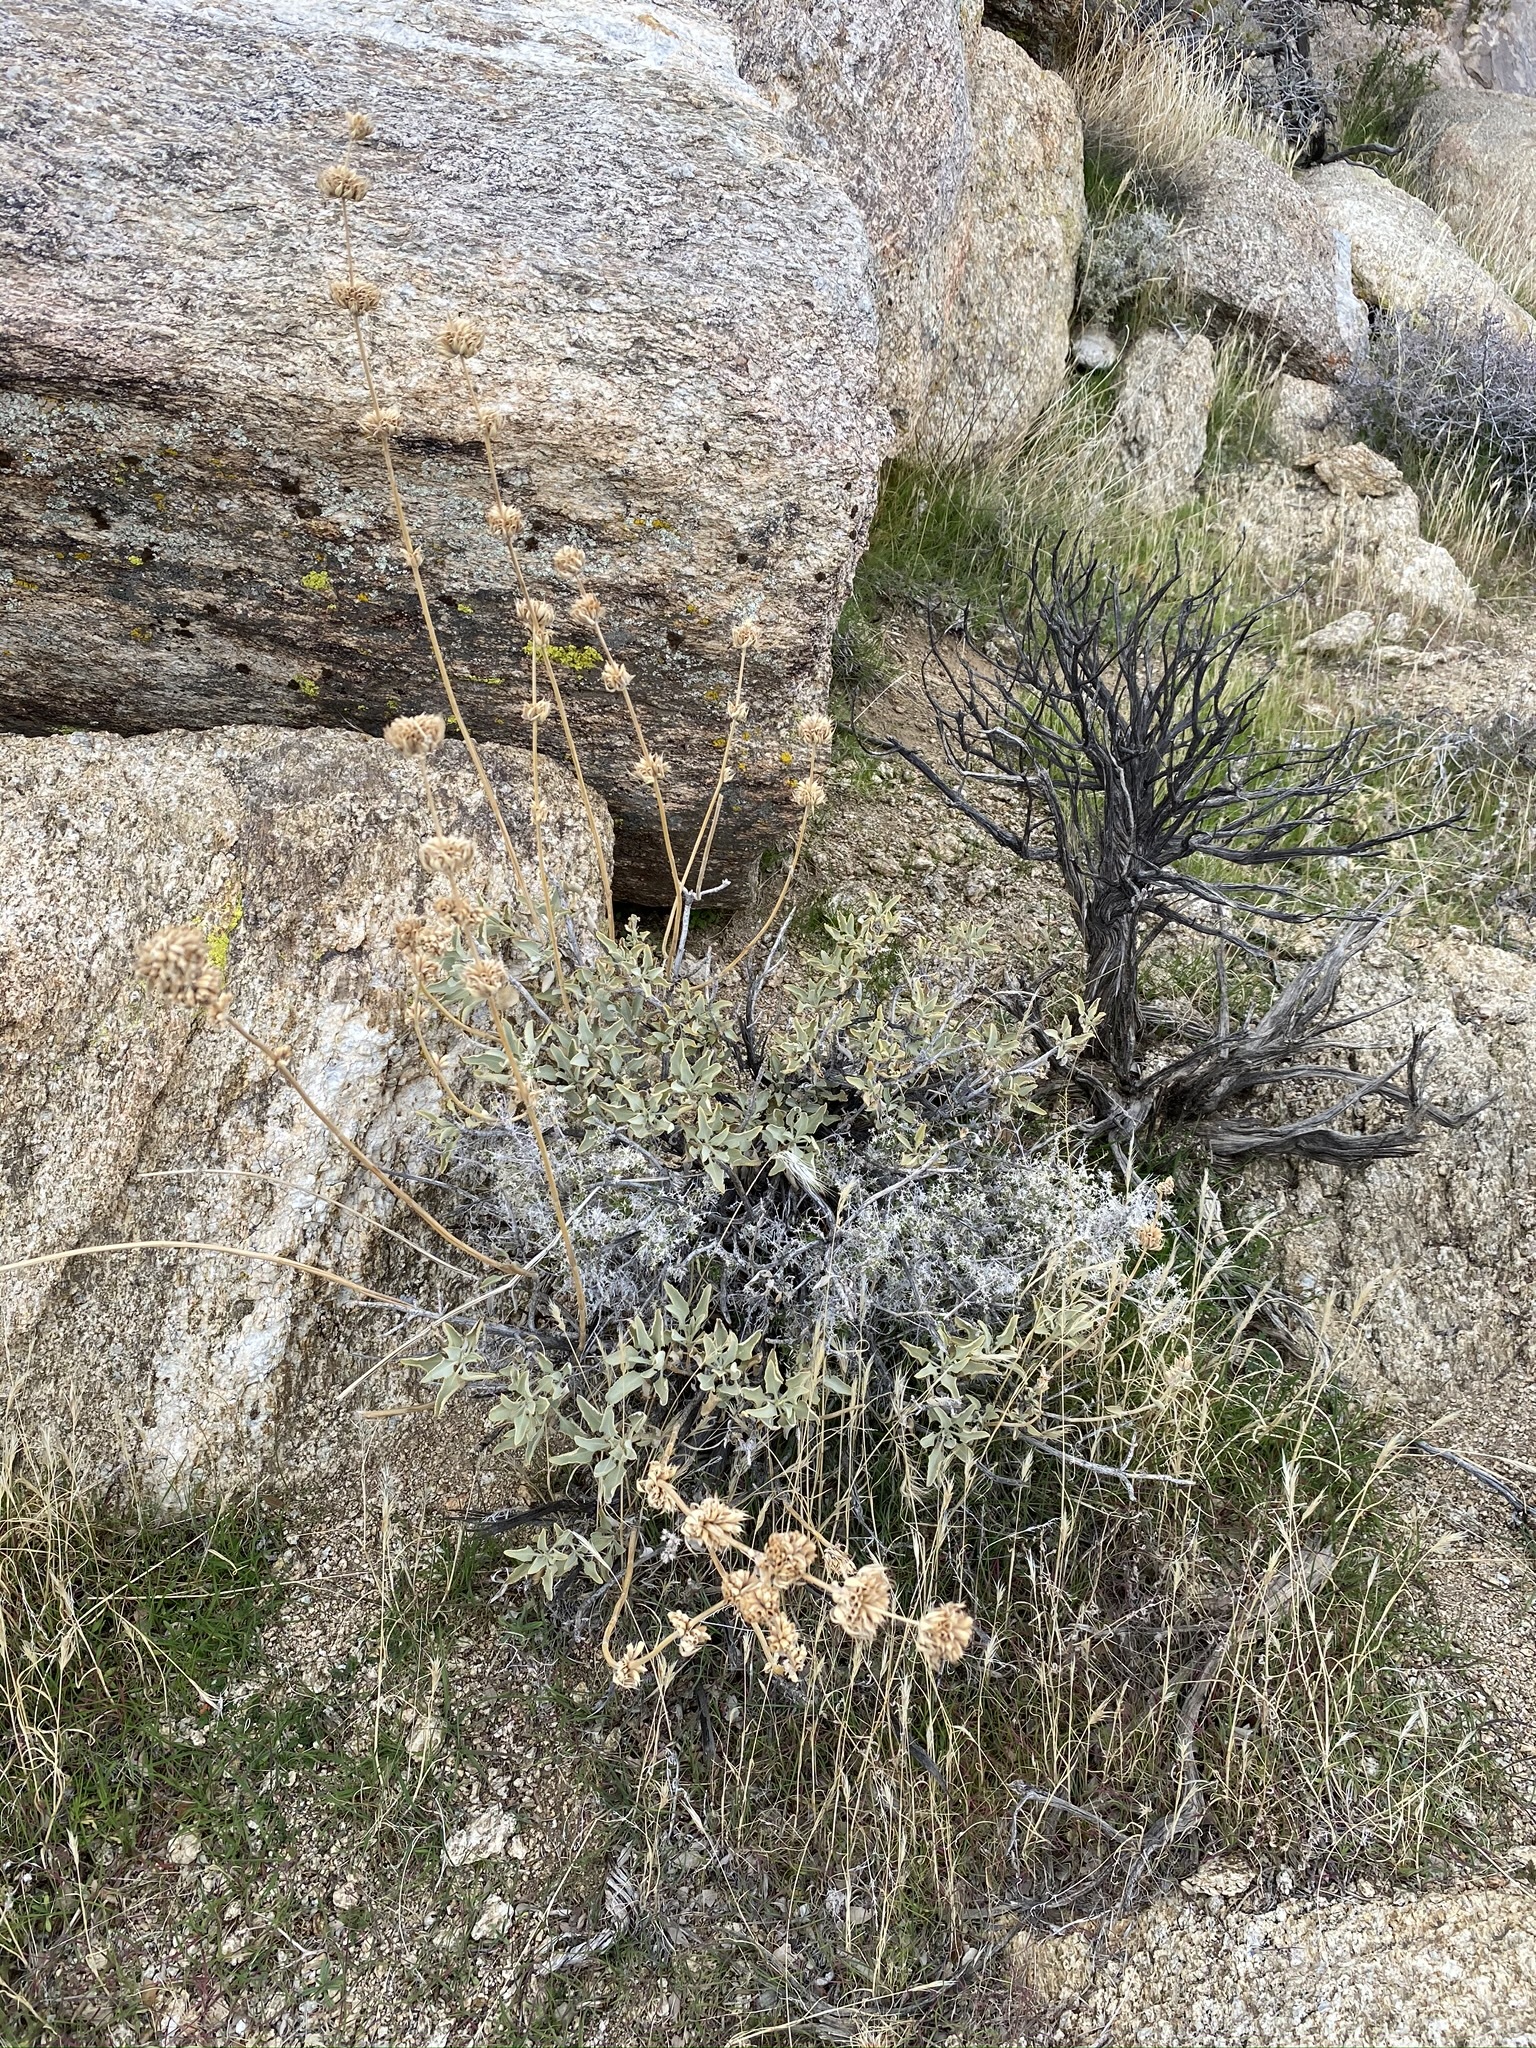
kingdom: Plantae
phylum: Tracheophyta
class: Magnoliopsida
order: Lamiales
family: Lamiaceae
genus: Salvia
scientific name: Salvia vaseyi
